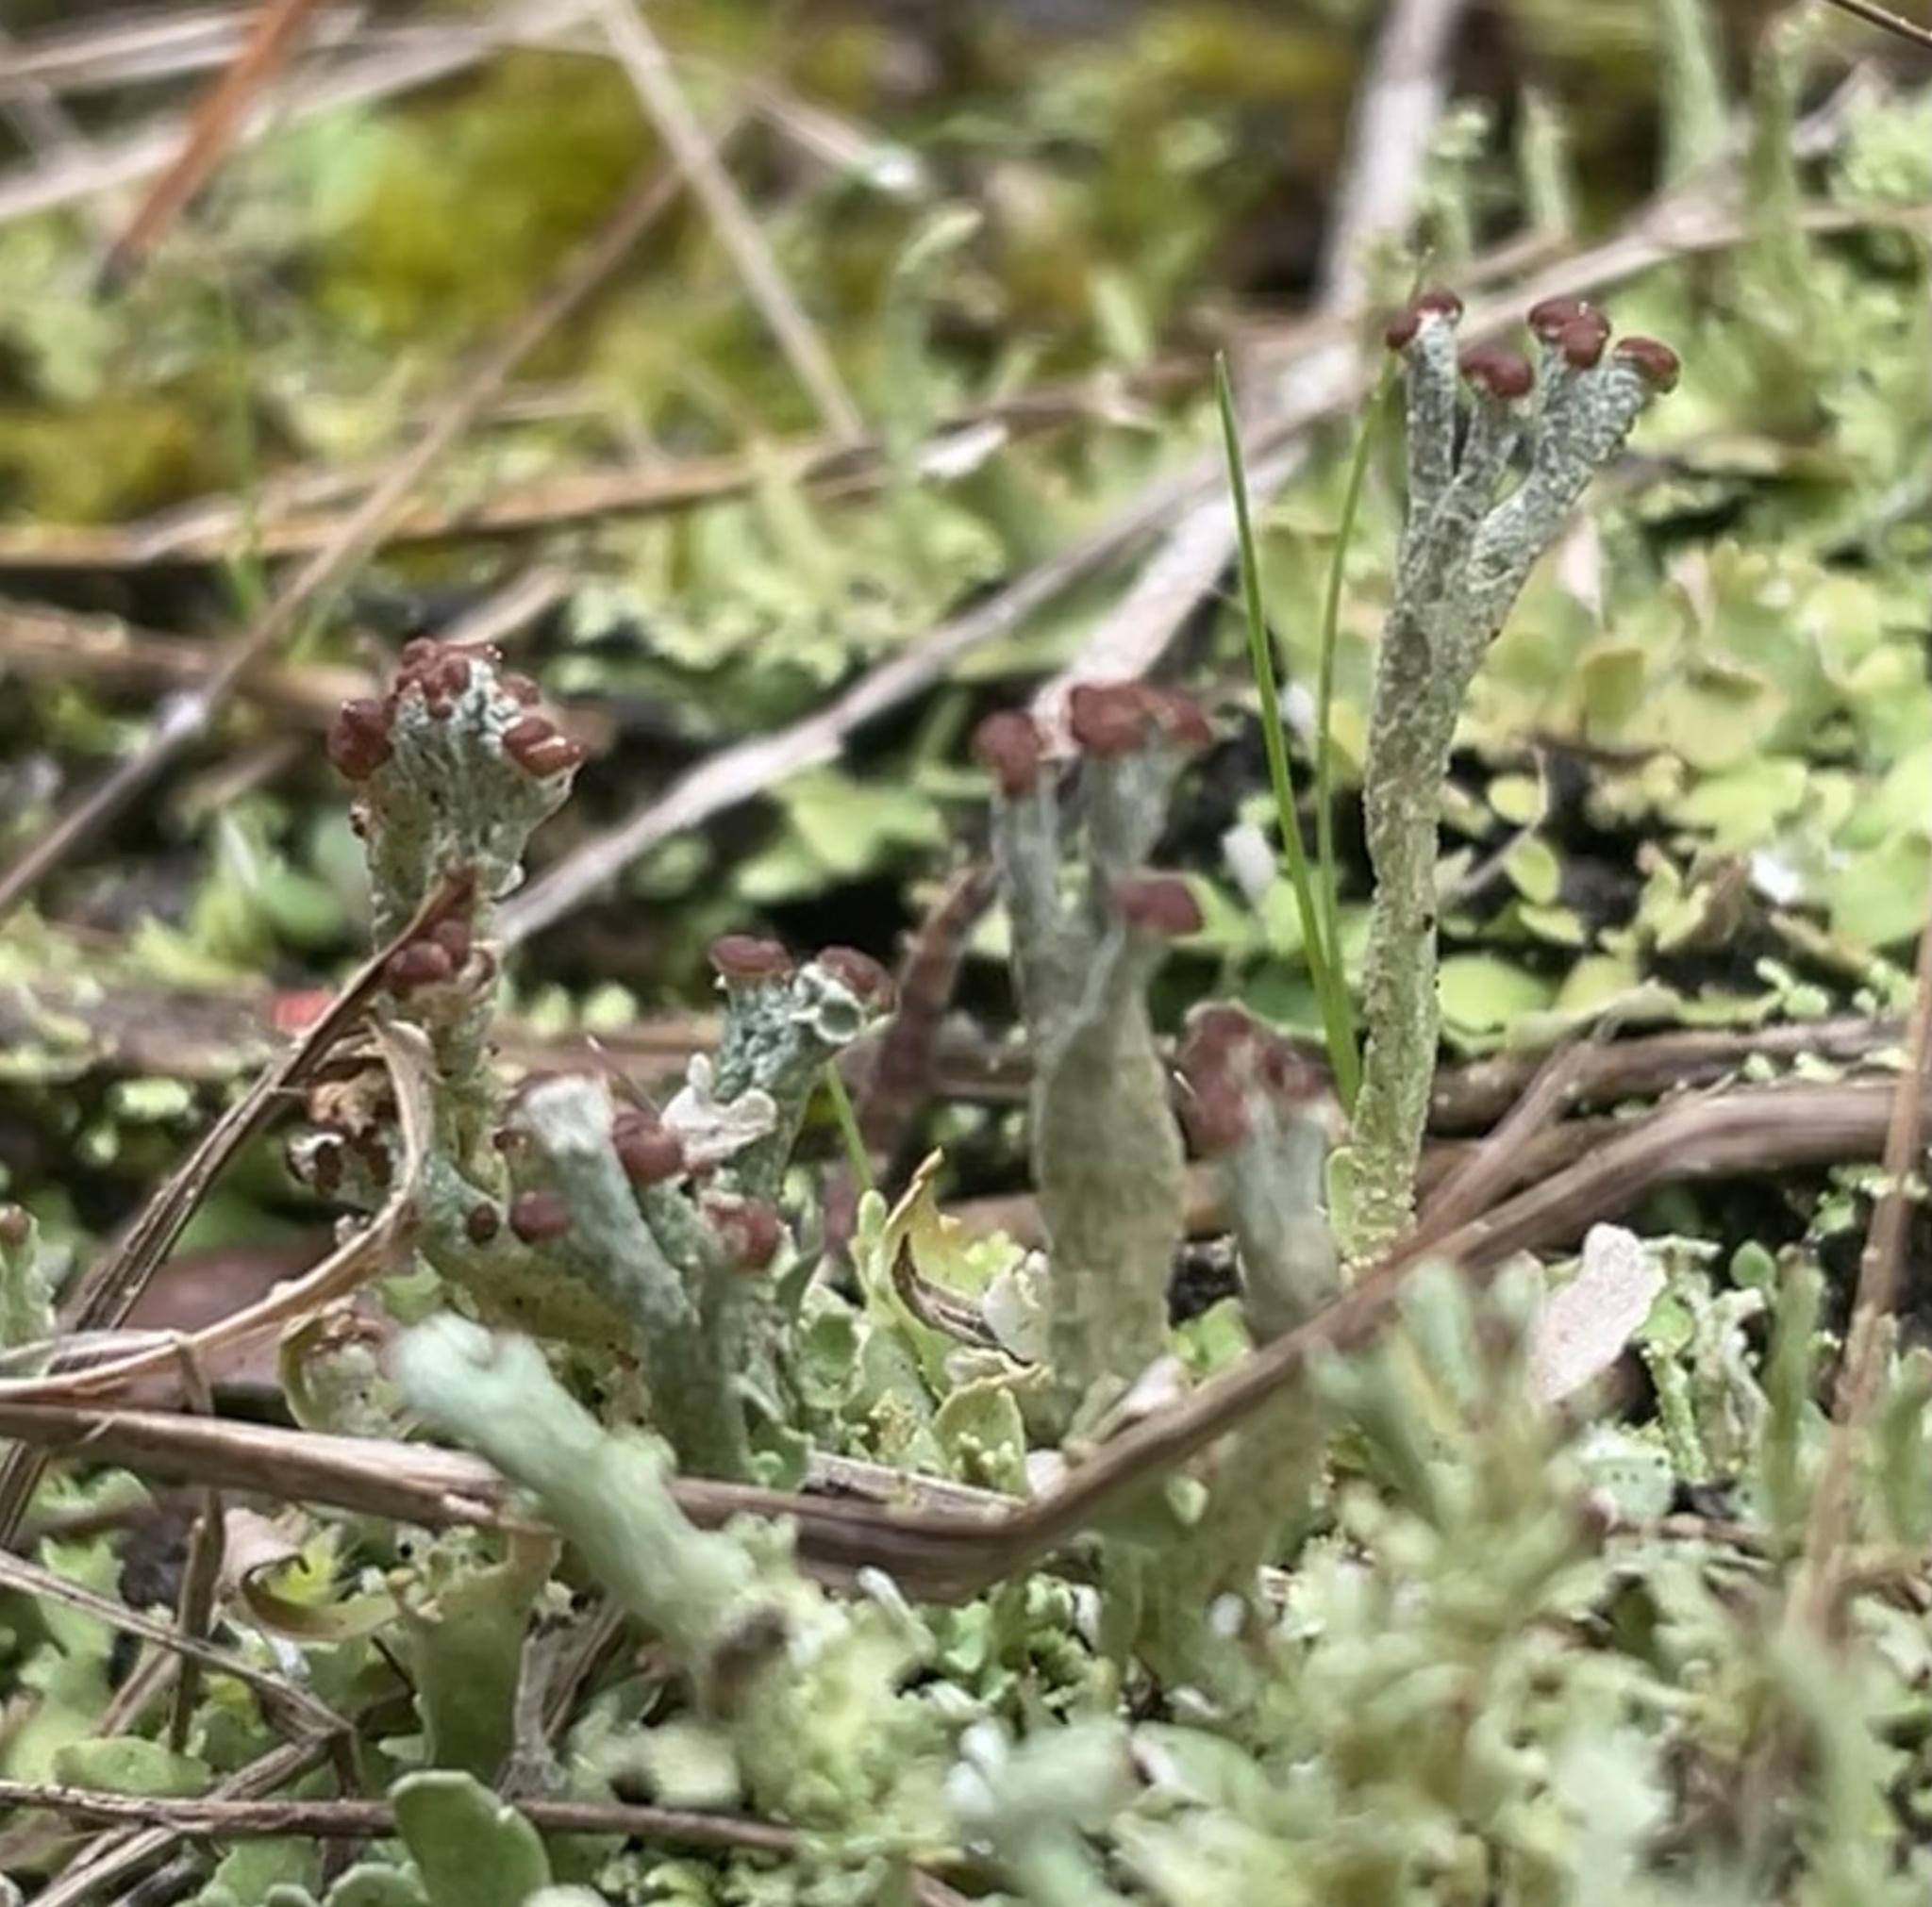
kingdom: Fungi
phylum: Ascomycota
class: Lecanoromycetes
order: Lecanorales
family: Cladoniaceae
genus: Cladonia
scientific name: Cladonia peziziformis
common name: Cup lichen
